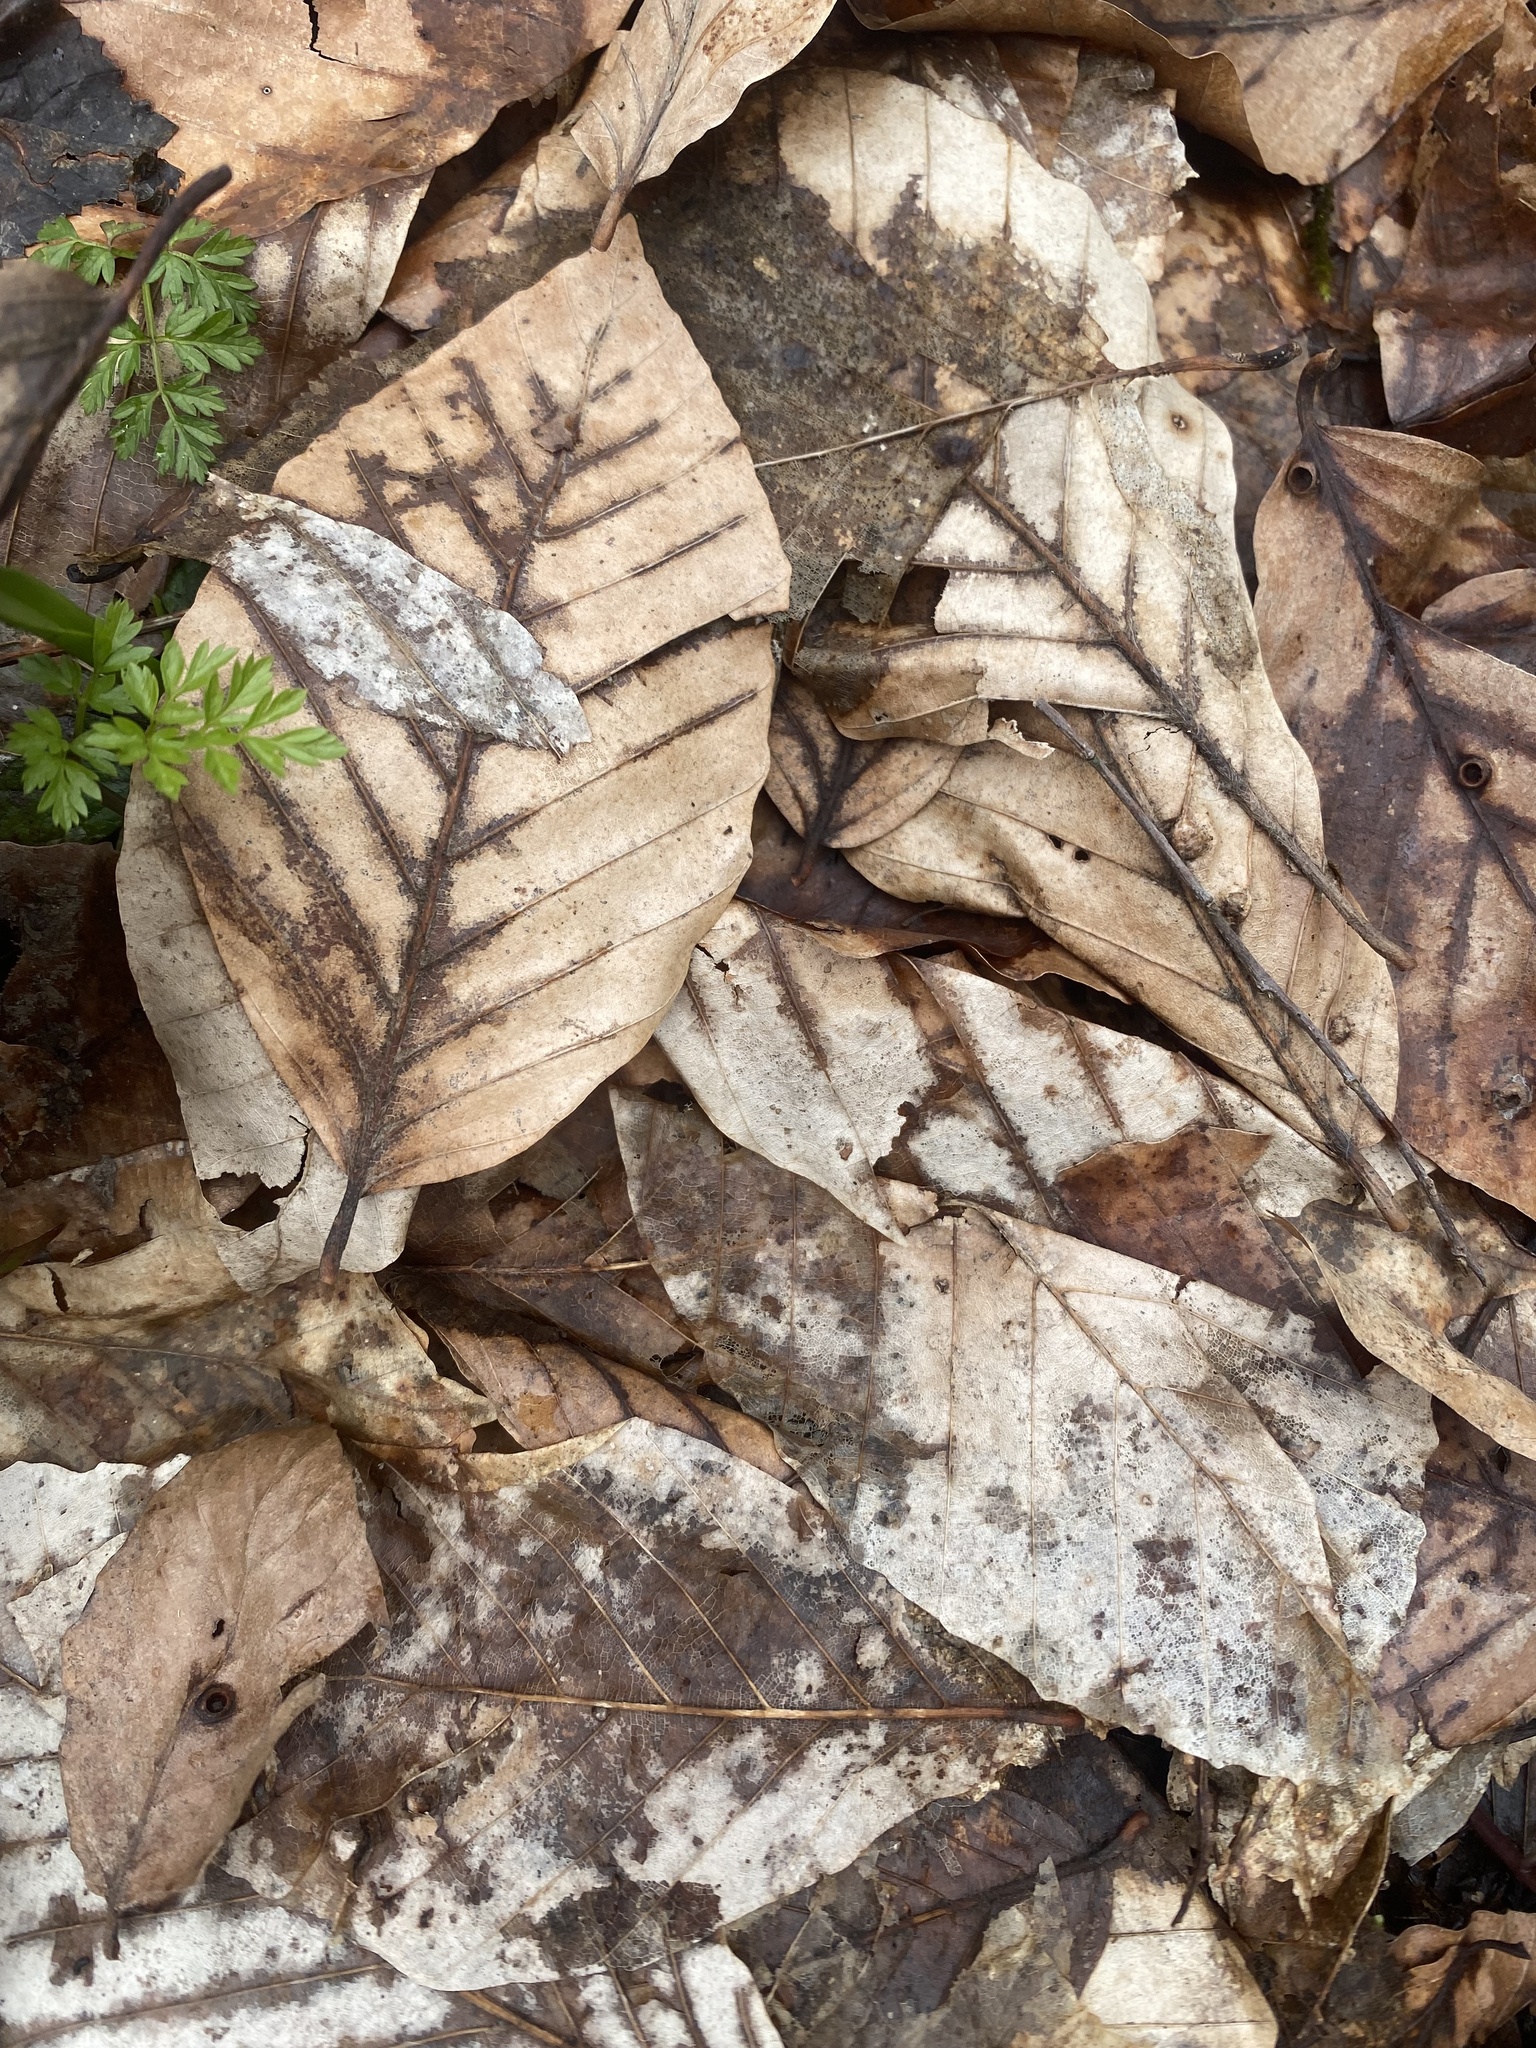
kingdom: Plantae
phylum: Tracheophyta
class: Magnoliopsida
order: Fagales
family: Fagaceae
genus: Fagus
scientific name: Fagus orientalis
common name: Oriental beech
